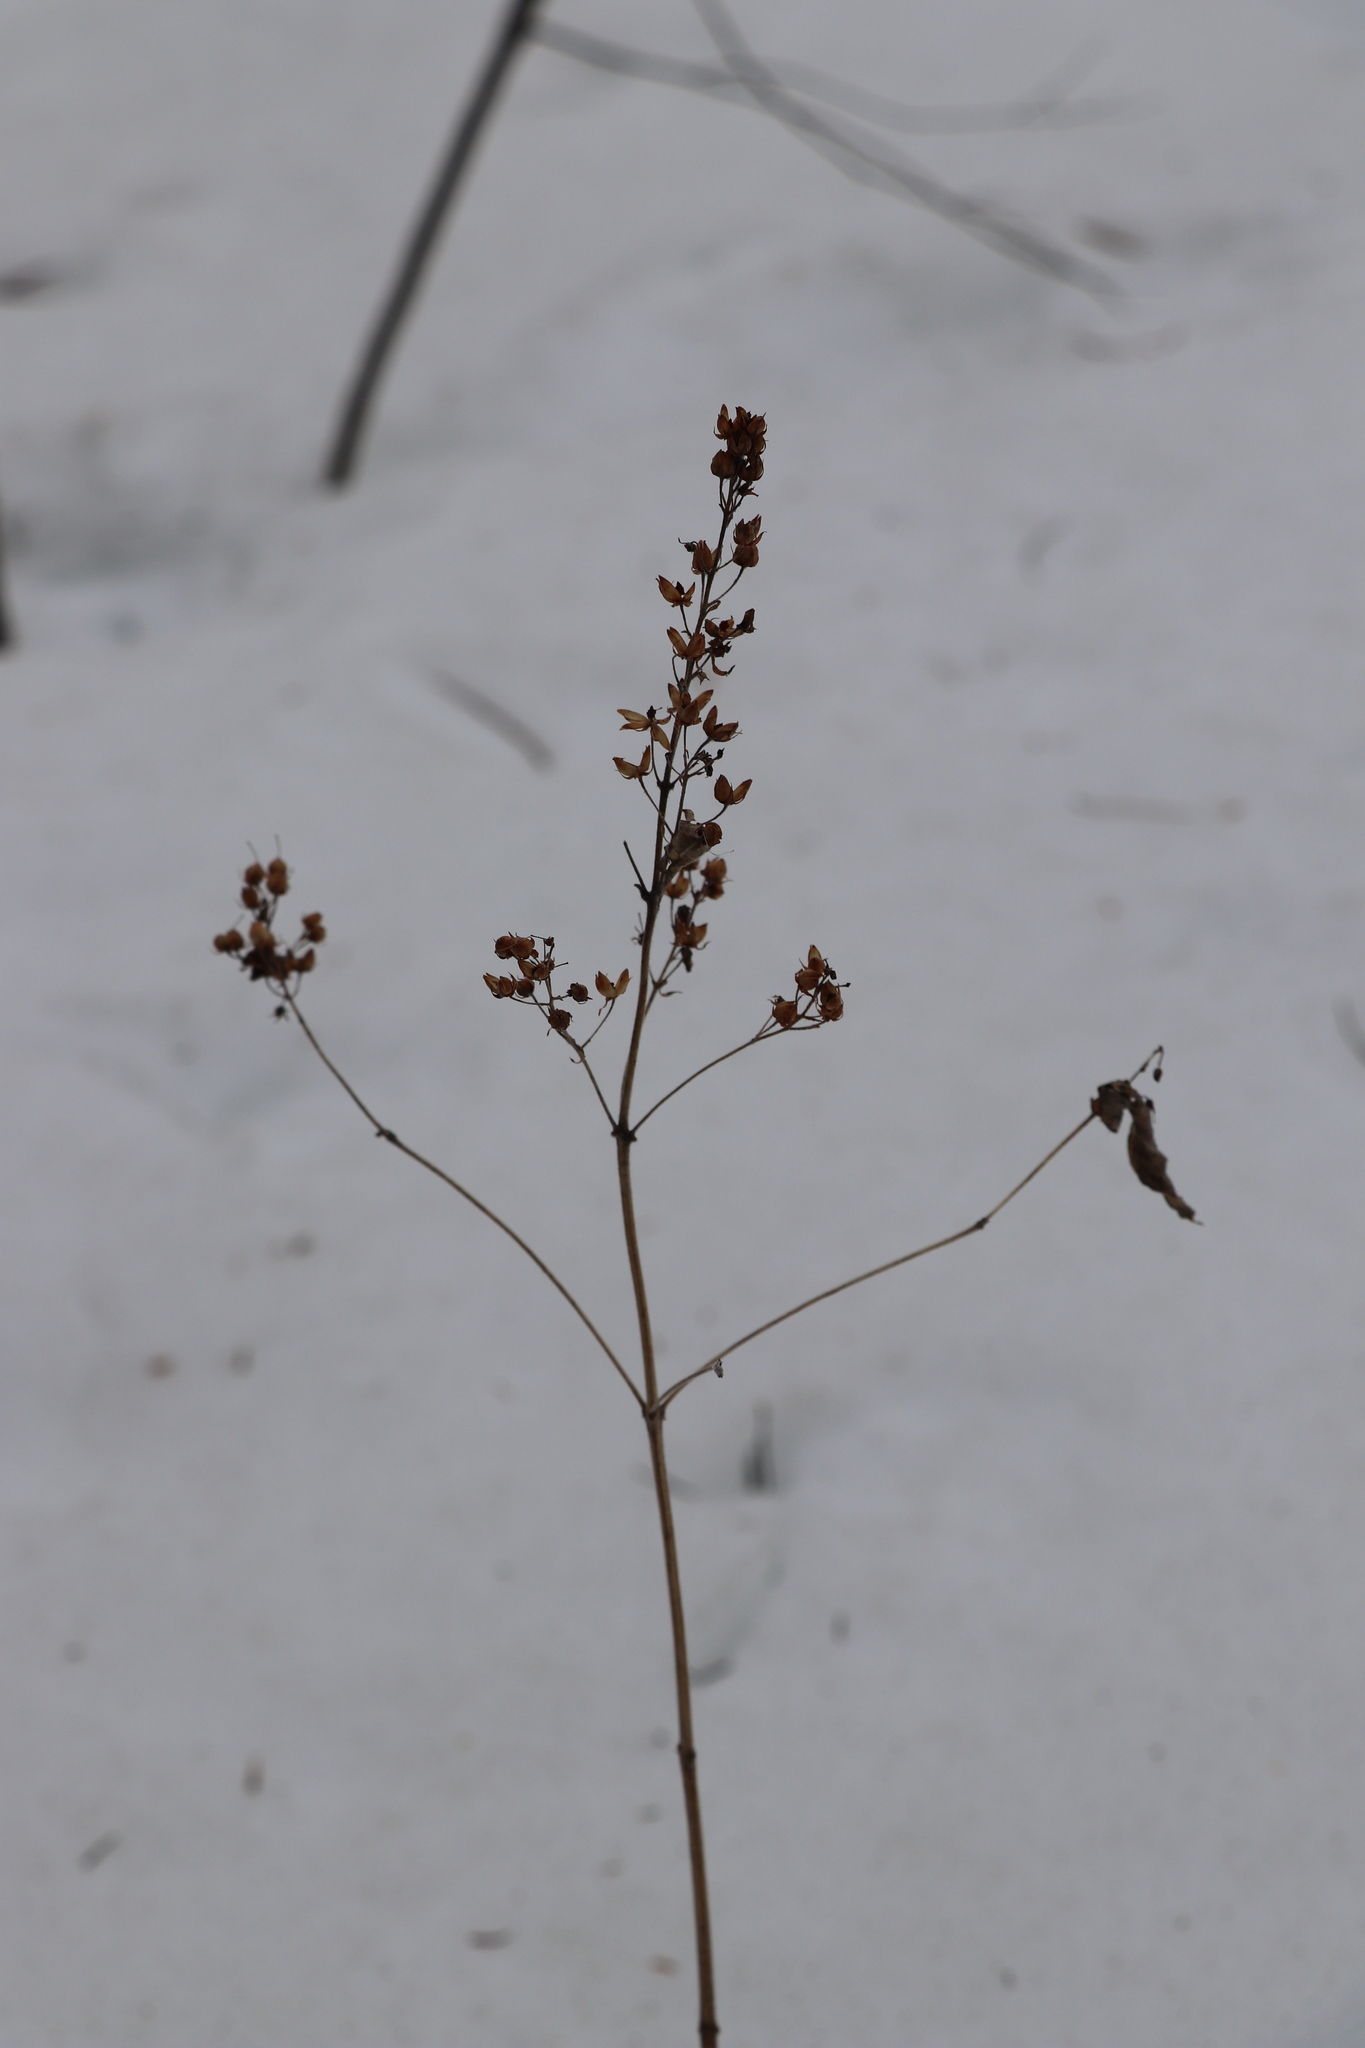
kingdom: Plantae
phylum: Tracheophyta
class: Magnoliopsida
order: Ericales
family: Primulaceae
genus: Lysimachia
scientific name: Lysimachia vulgaris
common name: Yellow loosestrife
